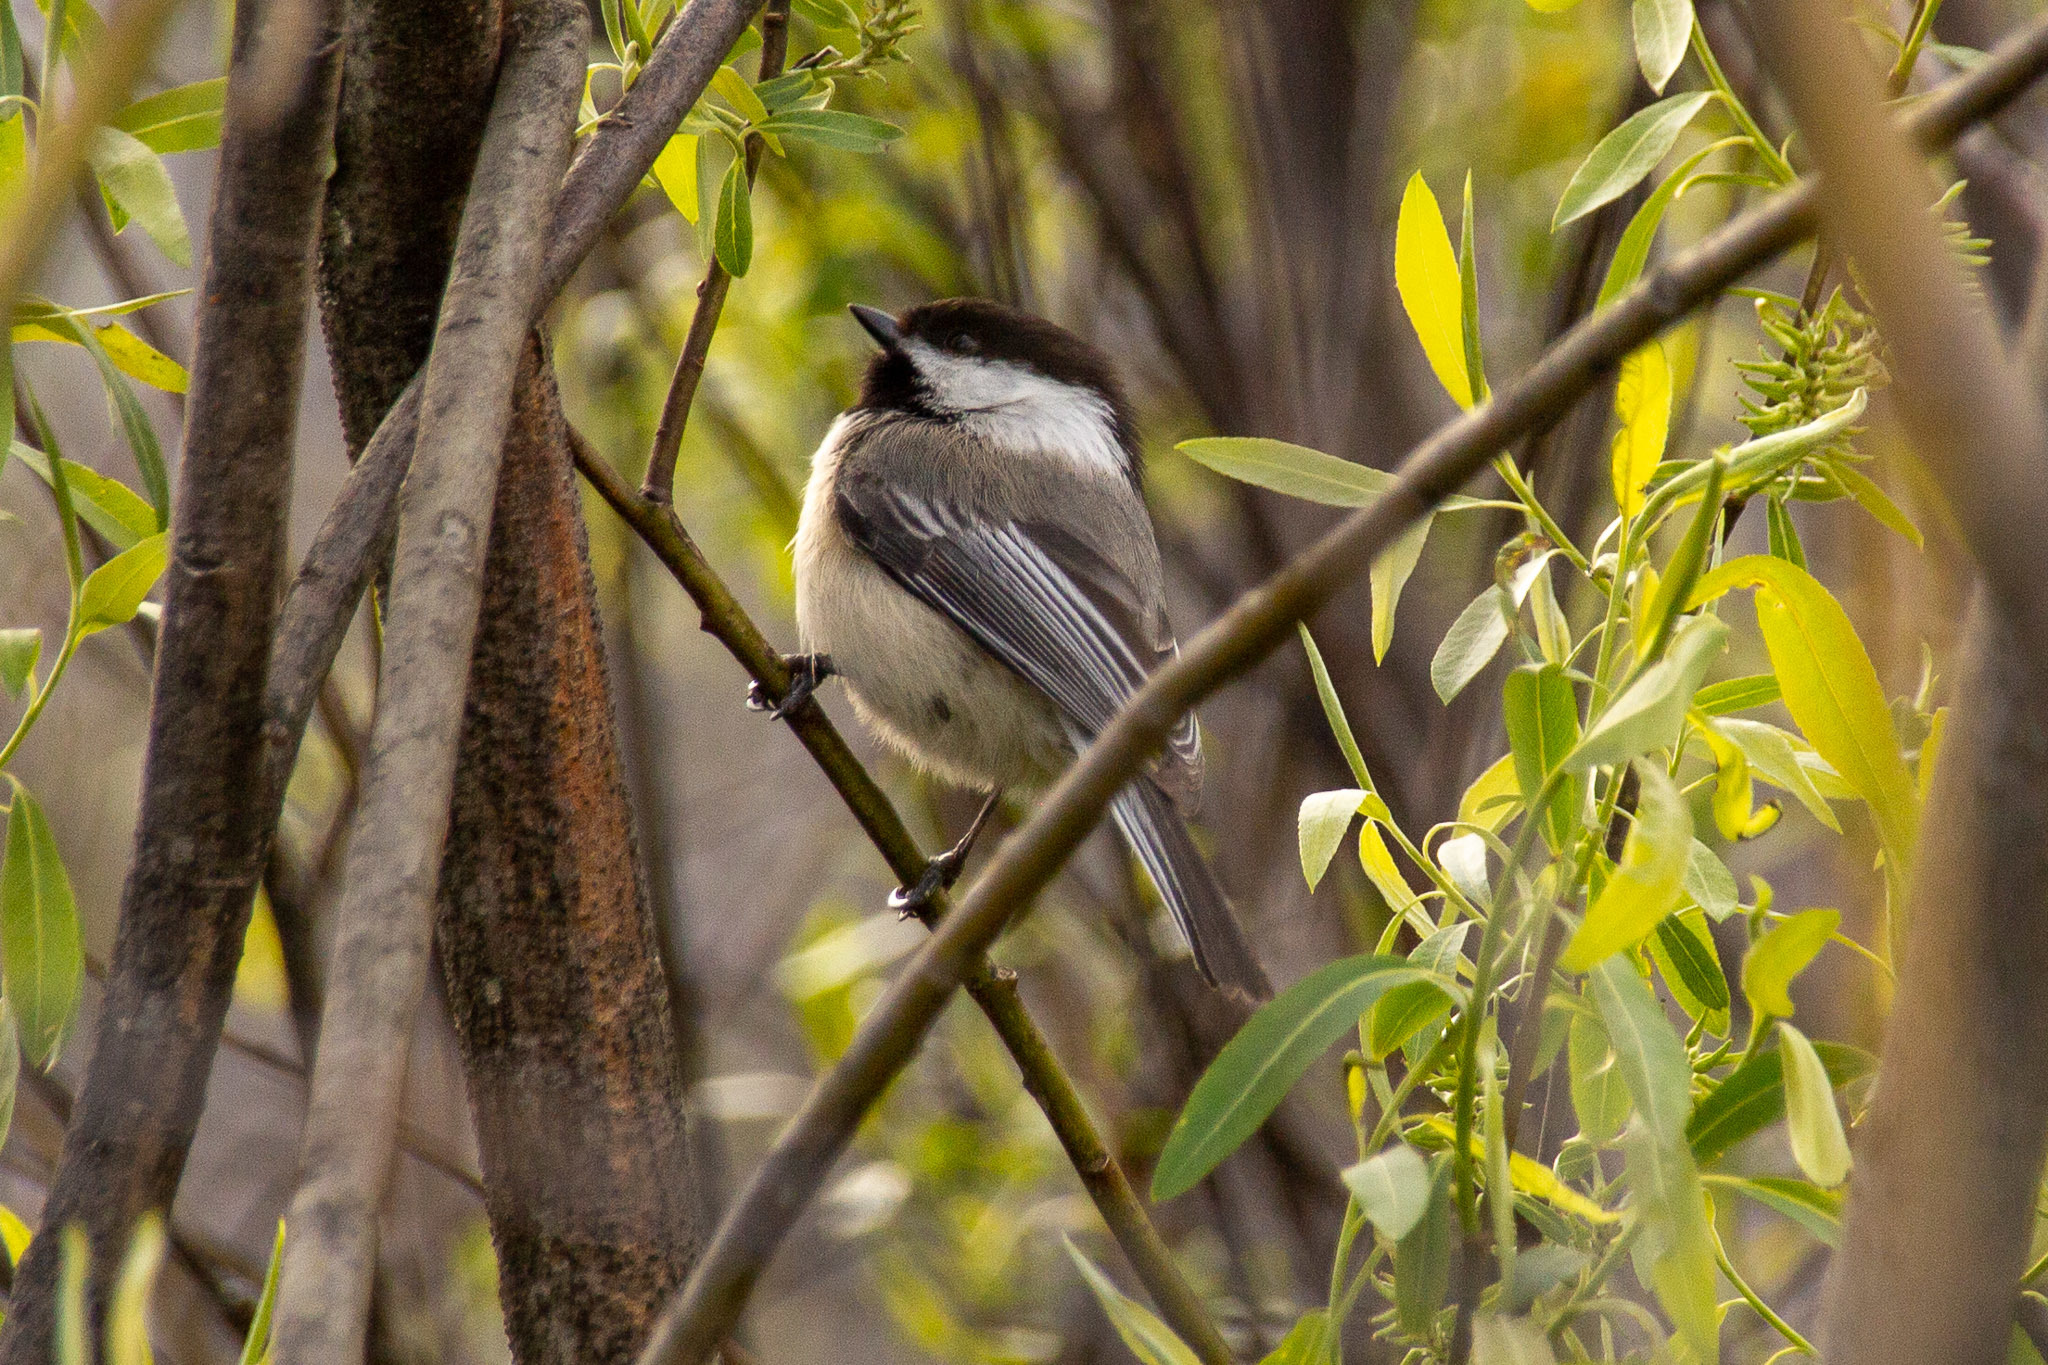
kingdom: Animalia
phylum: Chordata
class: Aves
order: Passeriformes
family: Paridae
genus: Poecile
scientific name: Poecile atricapillus
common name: Black-capped chickadee
